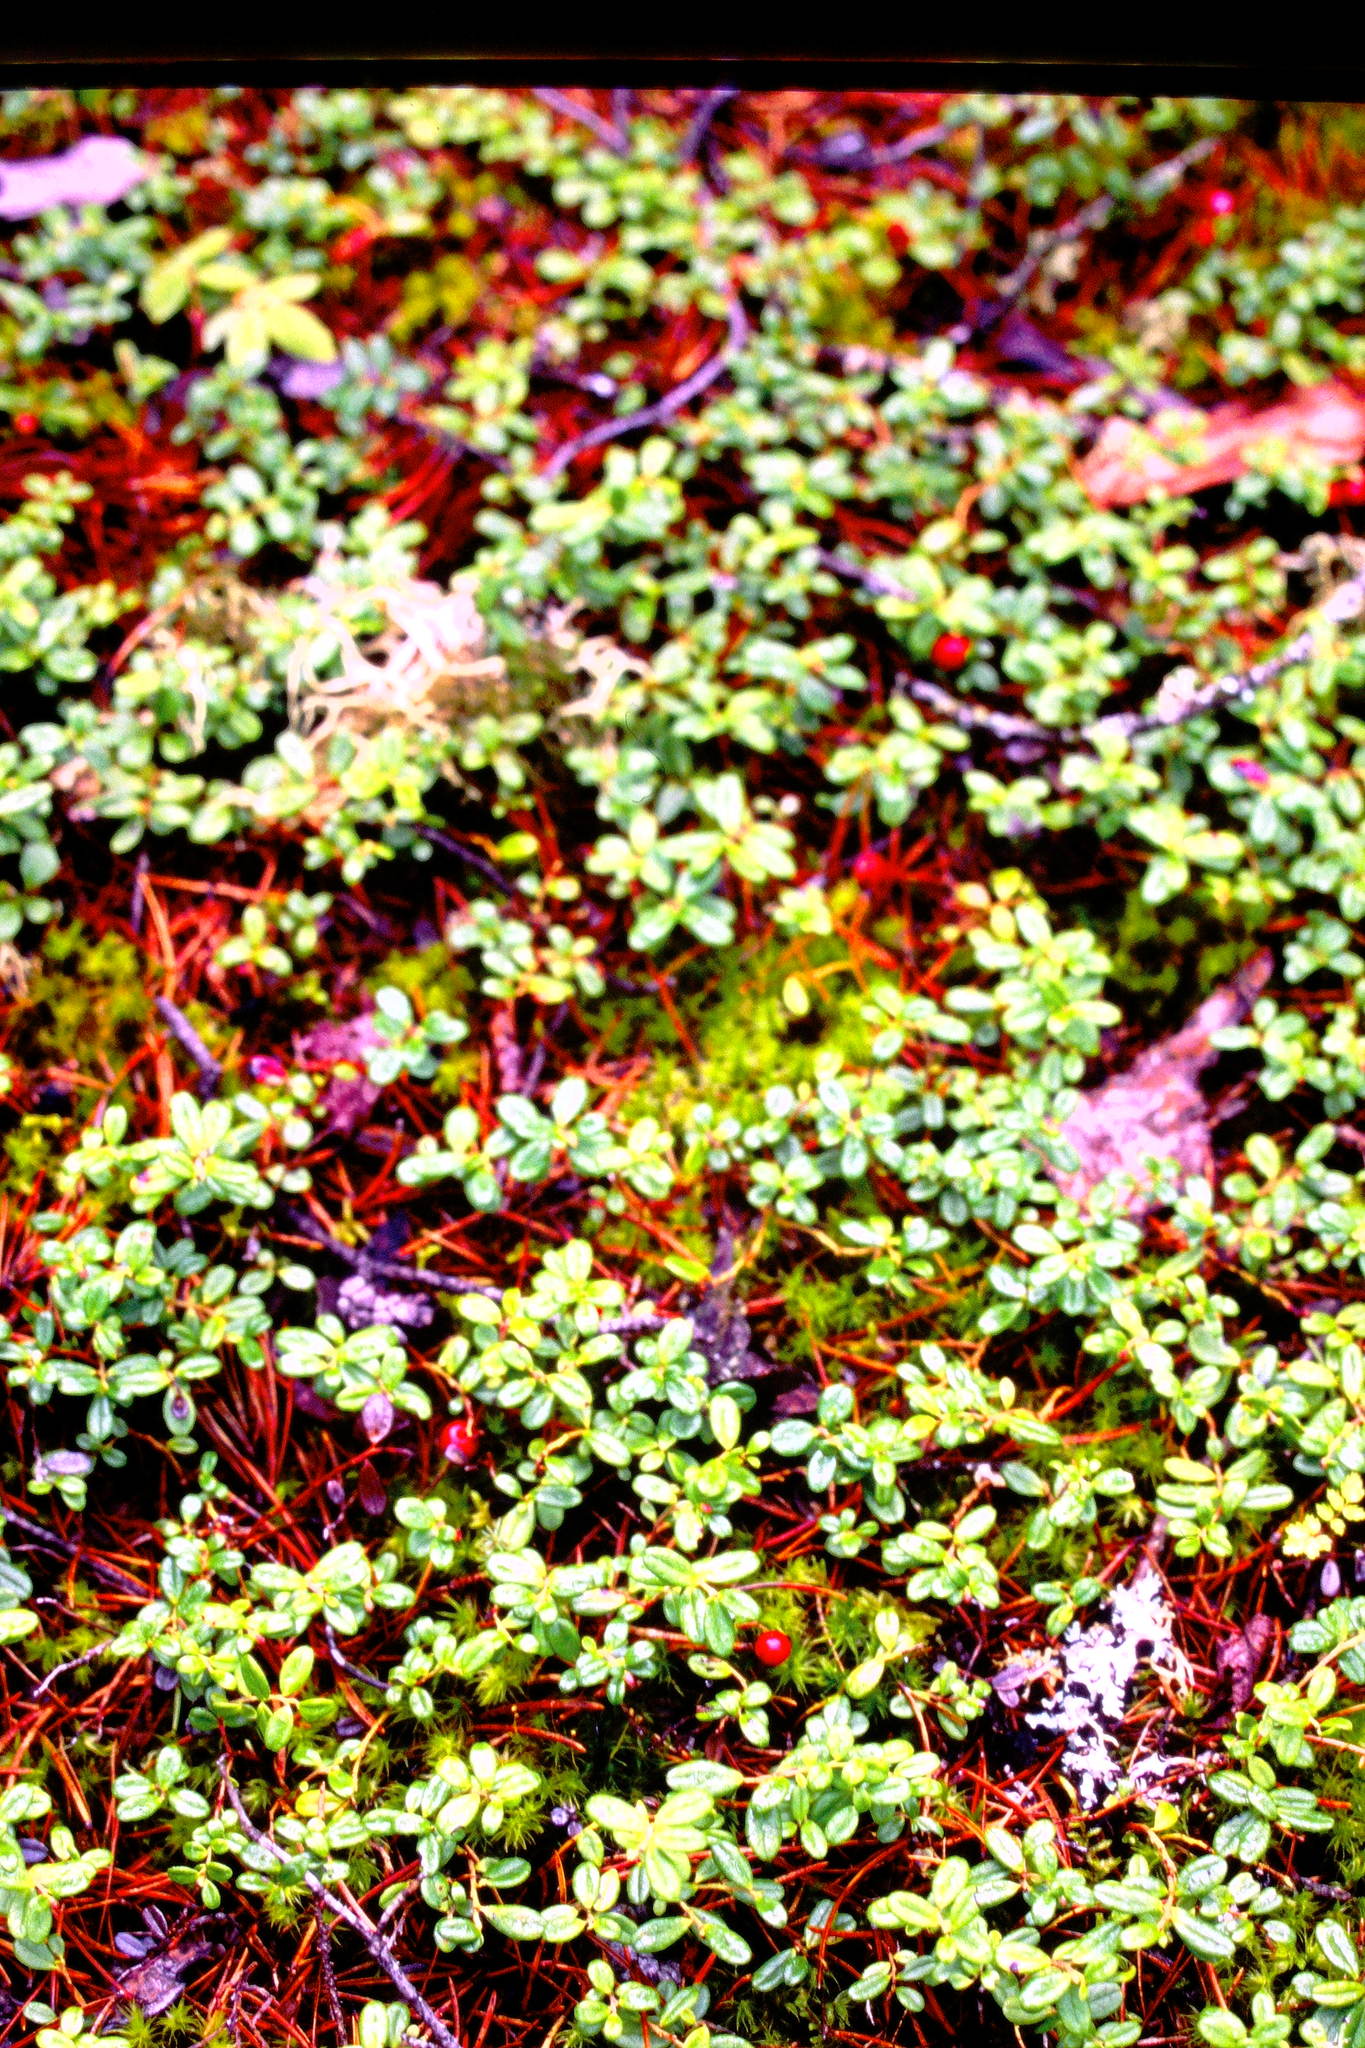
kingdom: Plantae
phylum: Tracheophyta
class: Magnoliopsida
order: Ericales
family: Ericaceae
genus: Vaccinium
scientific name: Vaccinium vitis-idaea
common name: Cowberry
